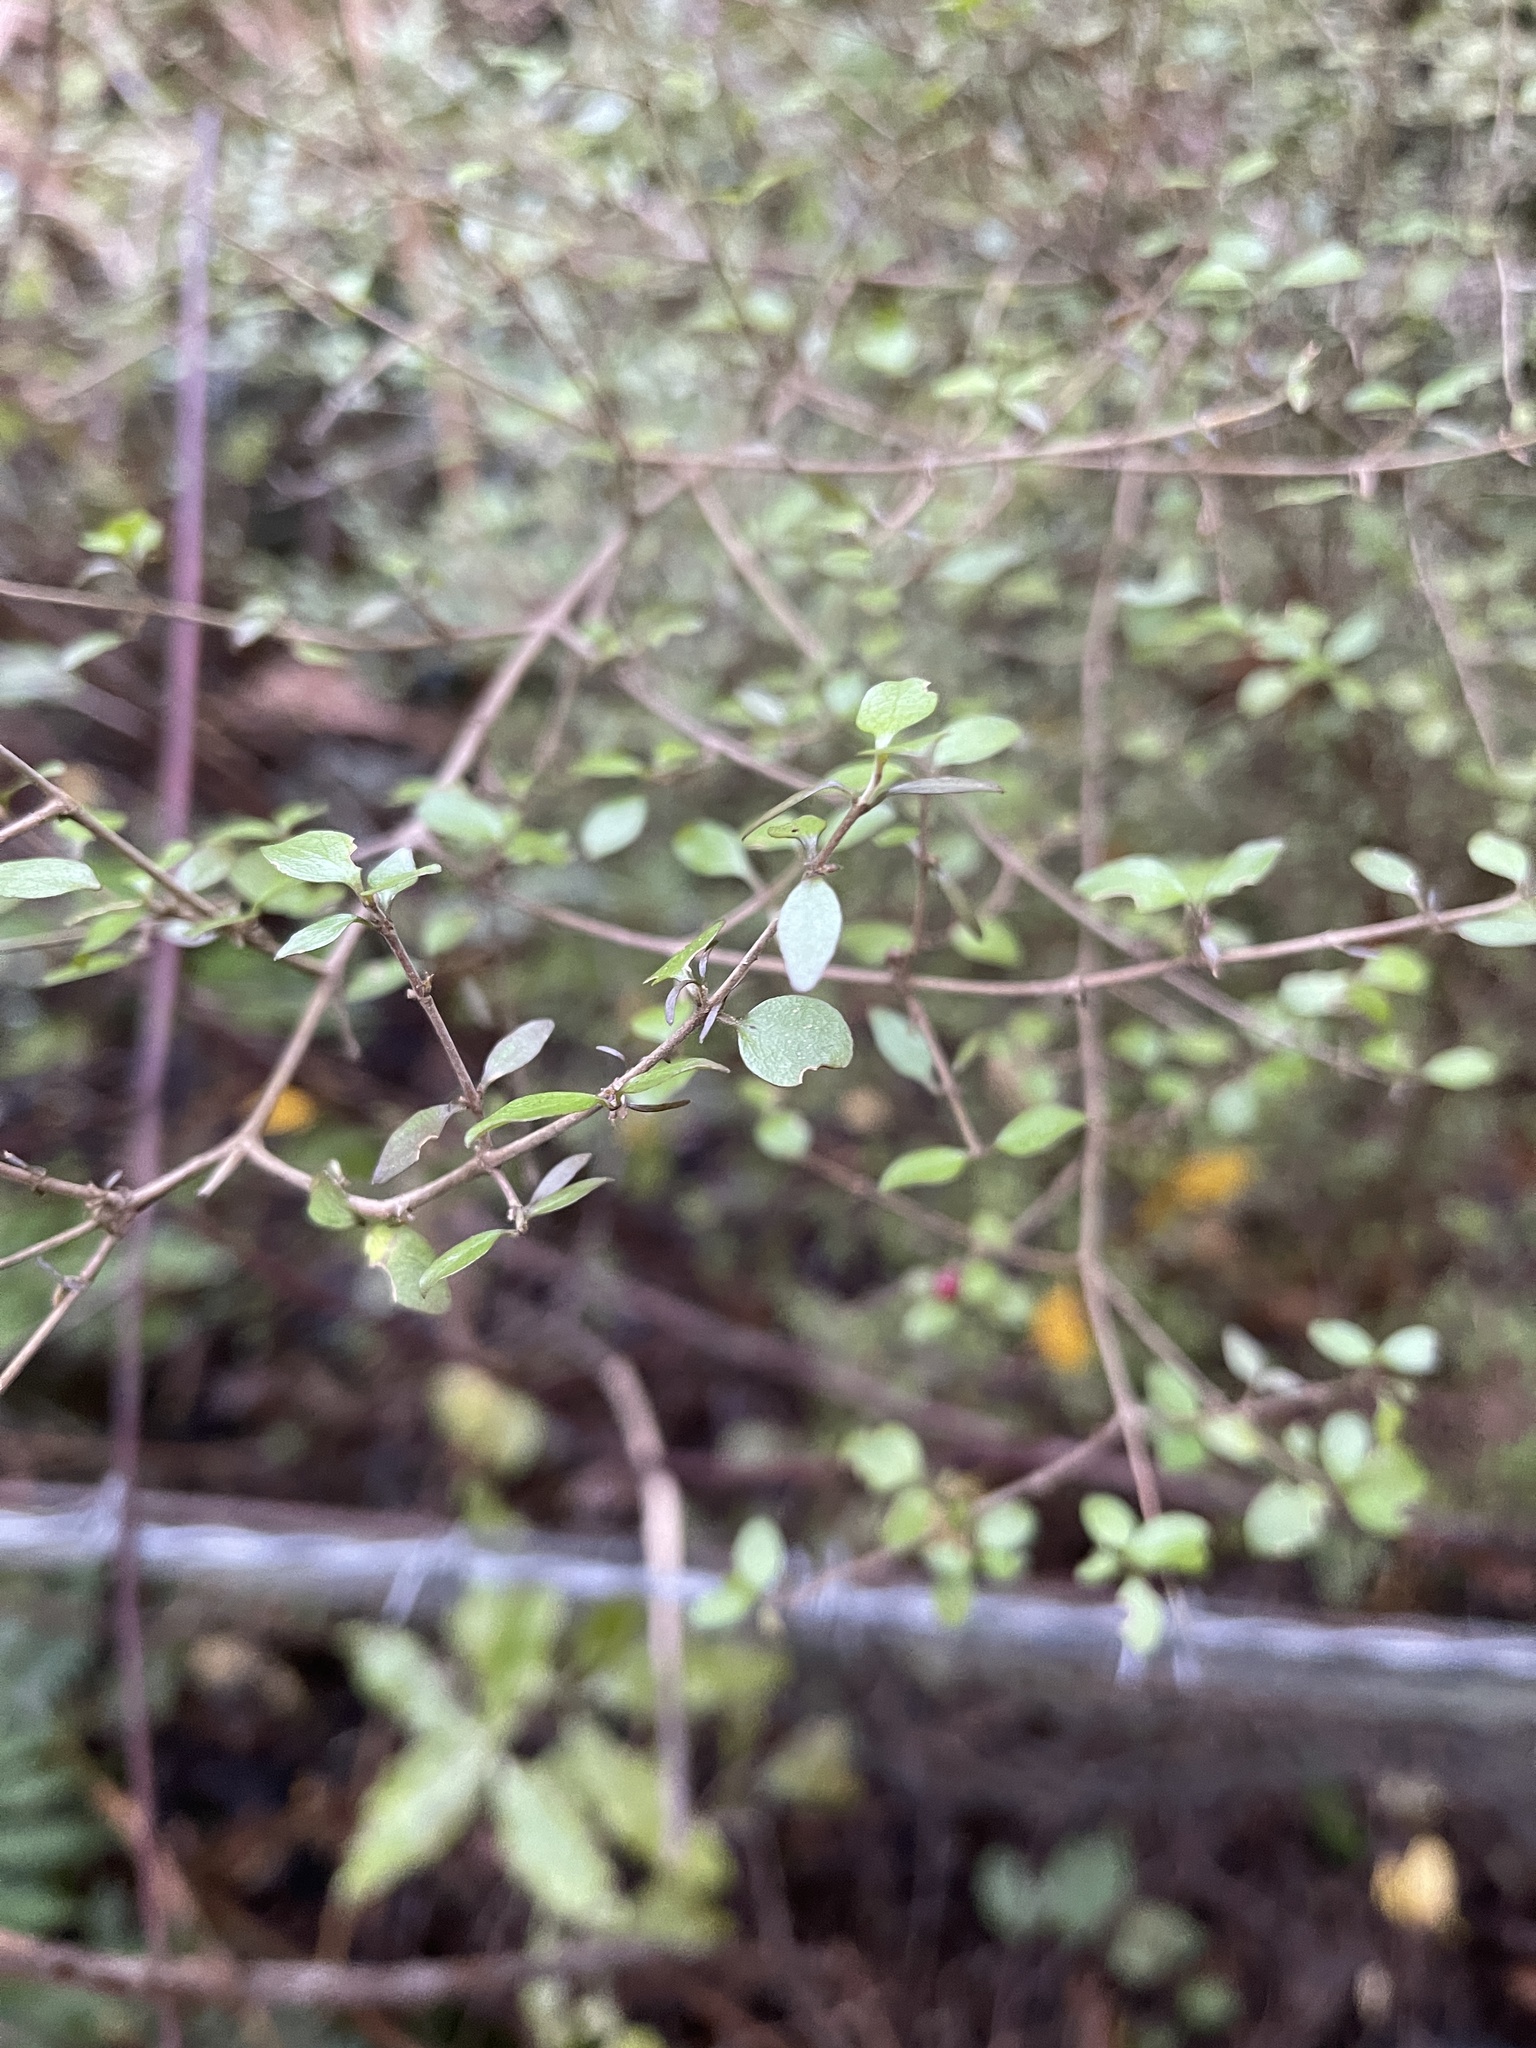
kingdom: Plantae
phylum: Tracheophyta
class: Magnoliopsida
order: Gentianales
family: Rubiaceae
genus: Coprosma
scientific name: Coprosma rhamnoides
